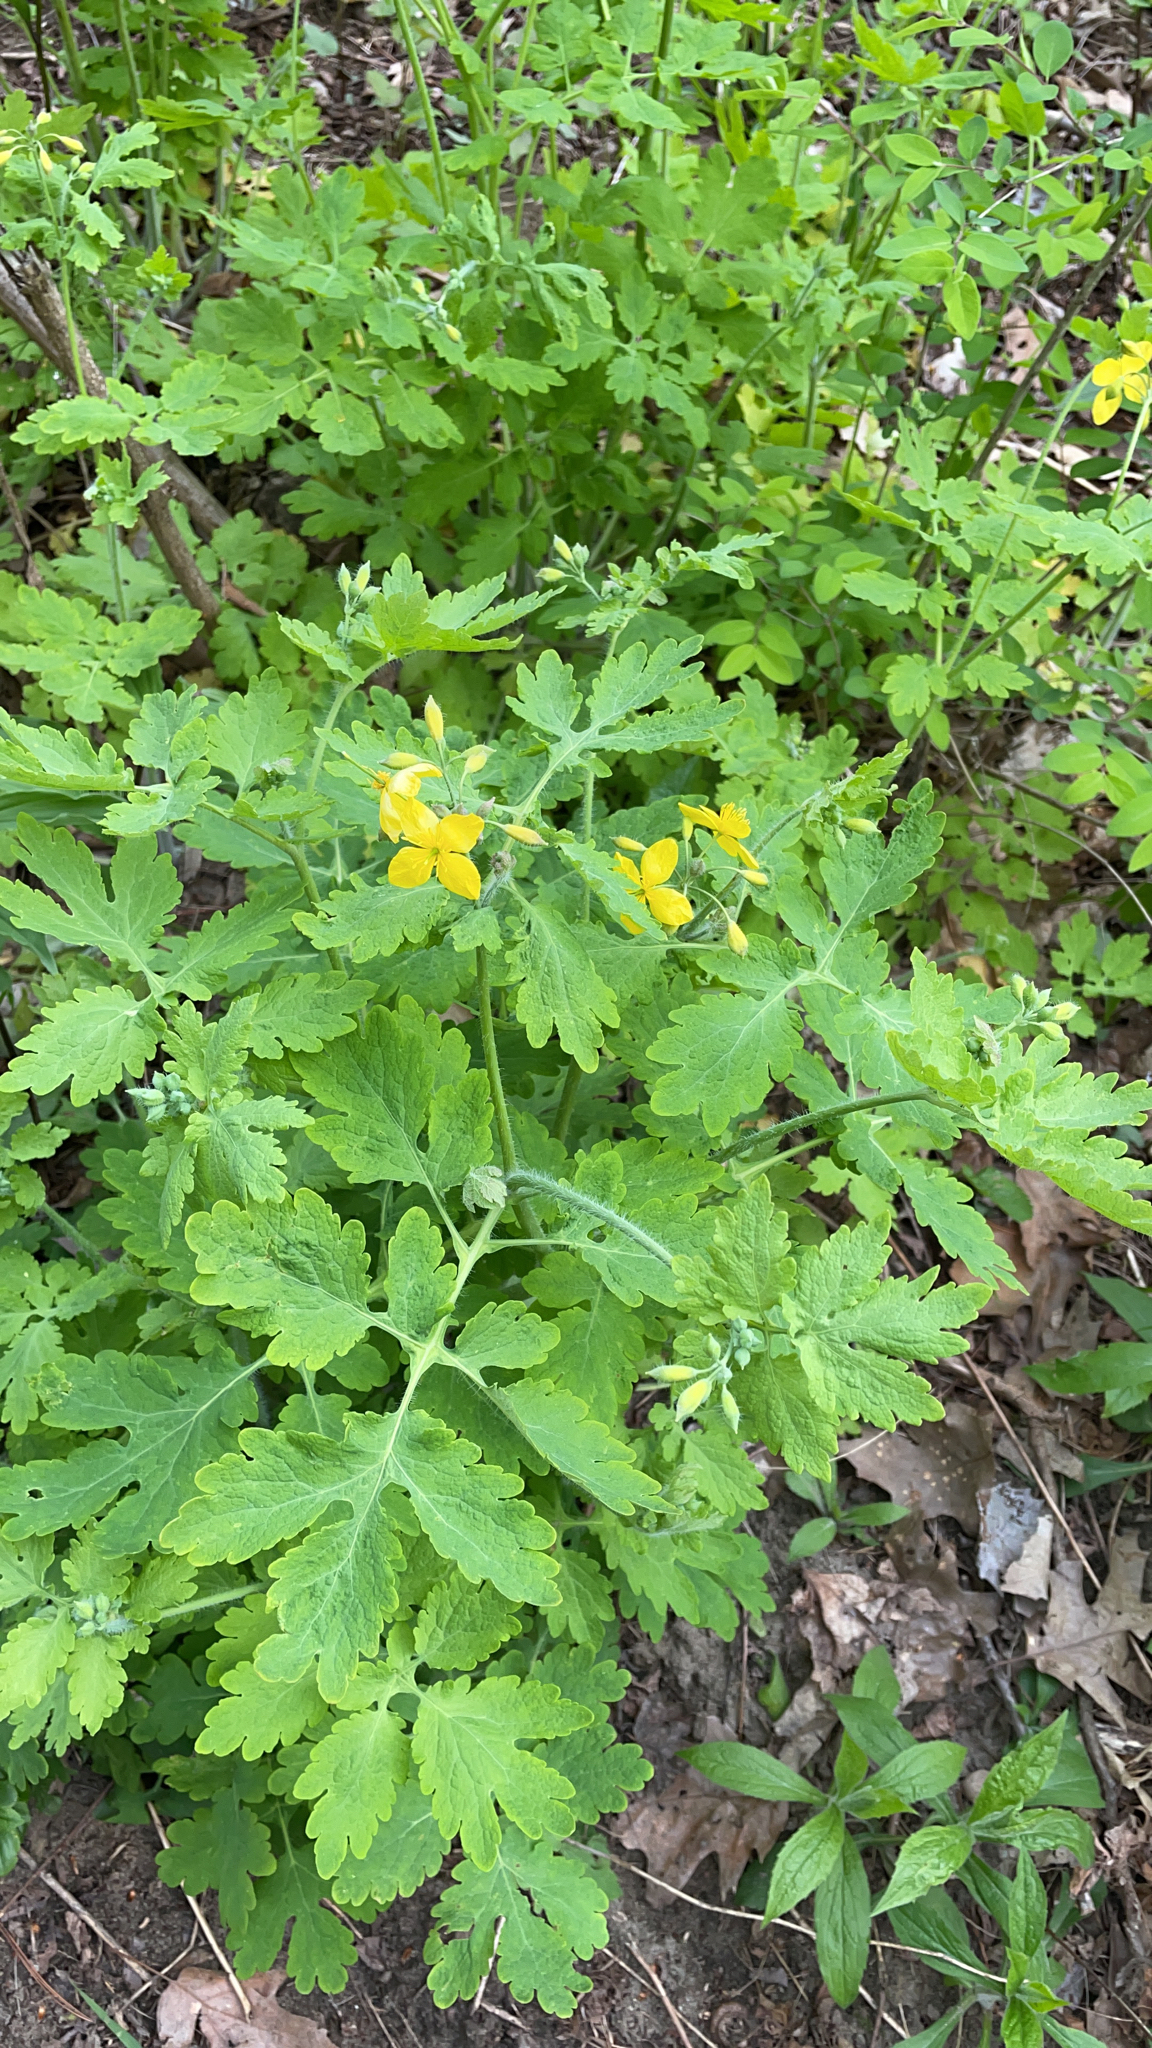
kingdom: Plantae
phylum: Tracheophyta
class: Magnoliopsida
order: Ranunculales
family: Papaveraceae
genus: Chelidonium
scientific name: Chelidonium majus
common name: Greater celandine
